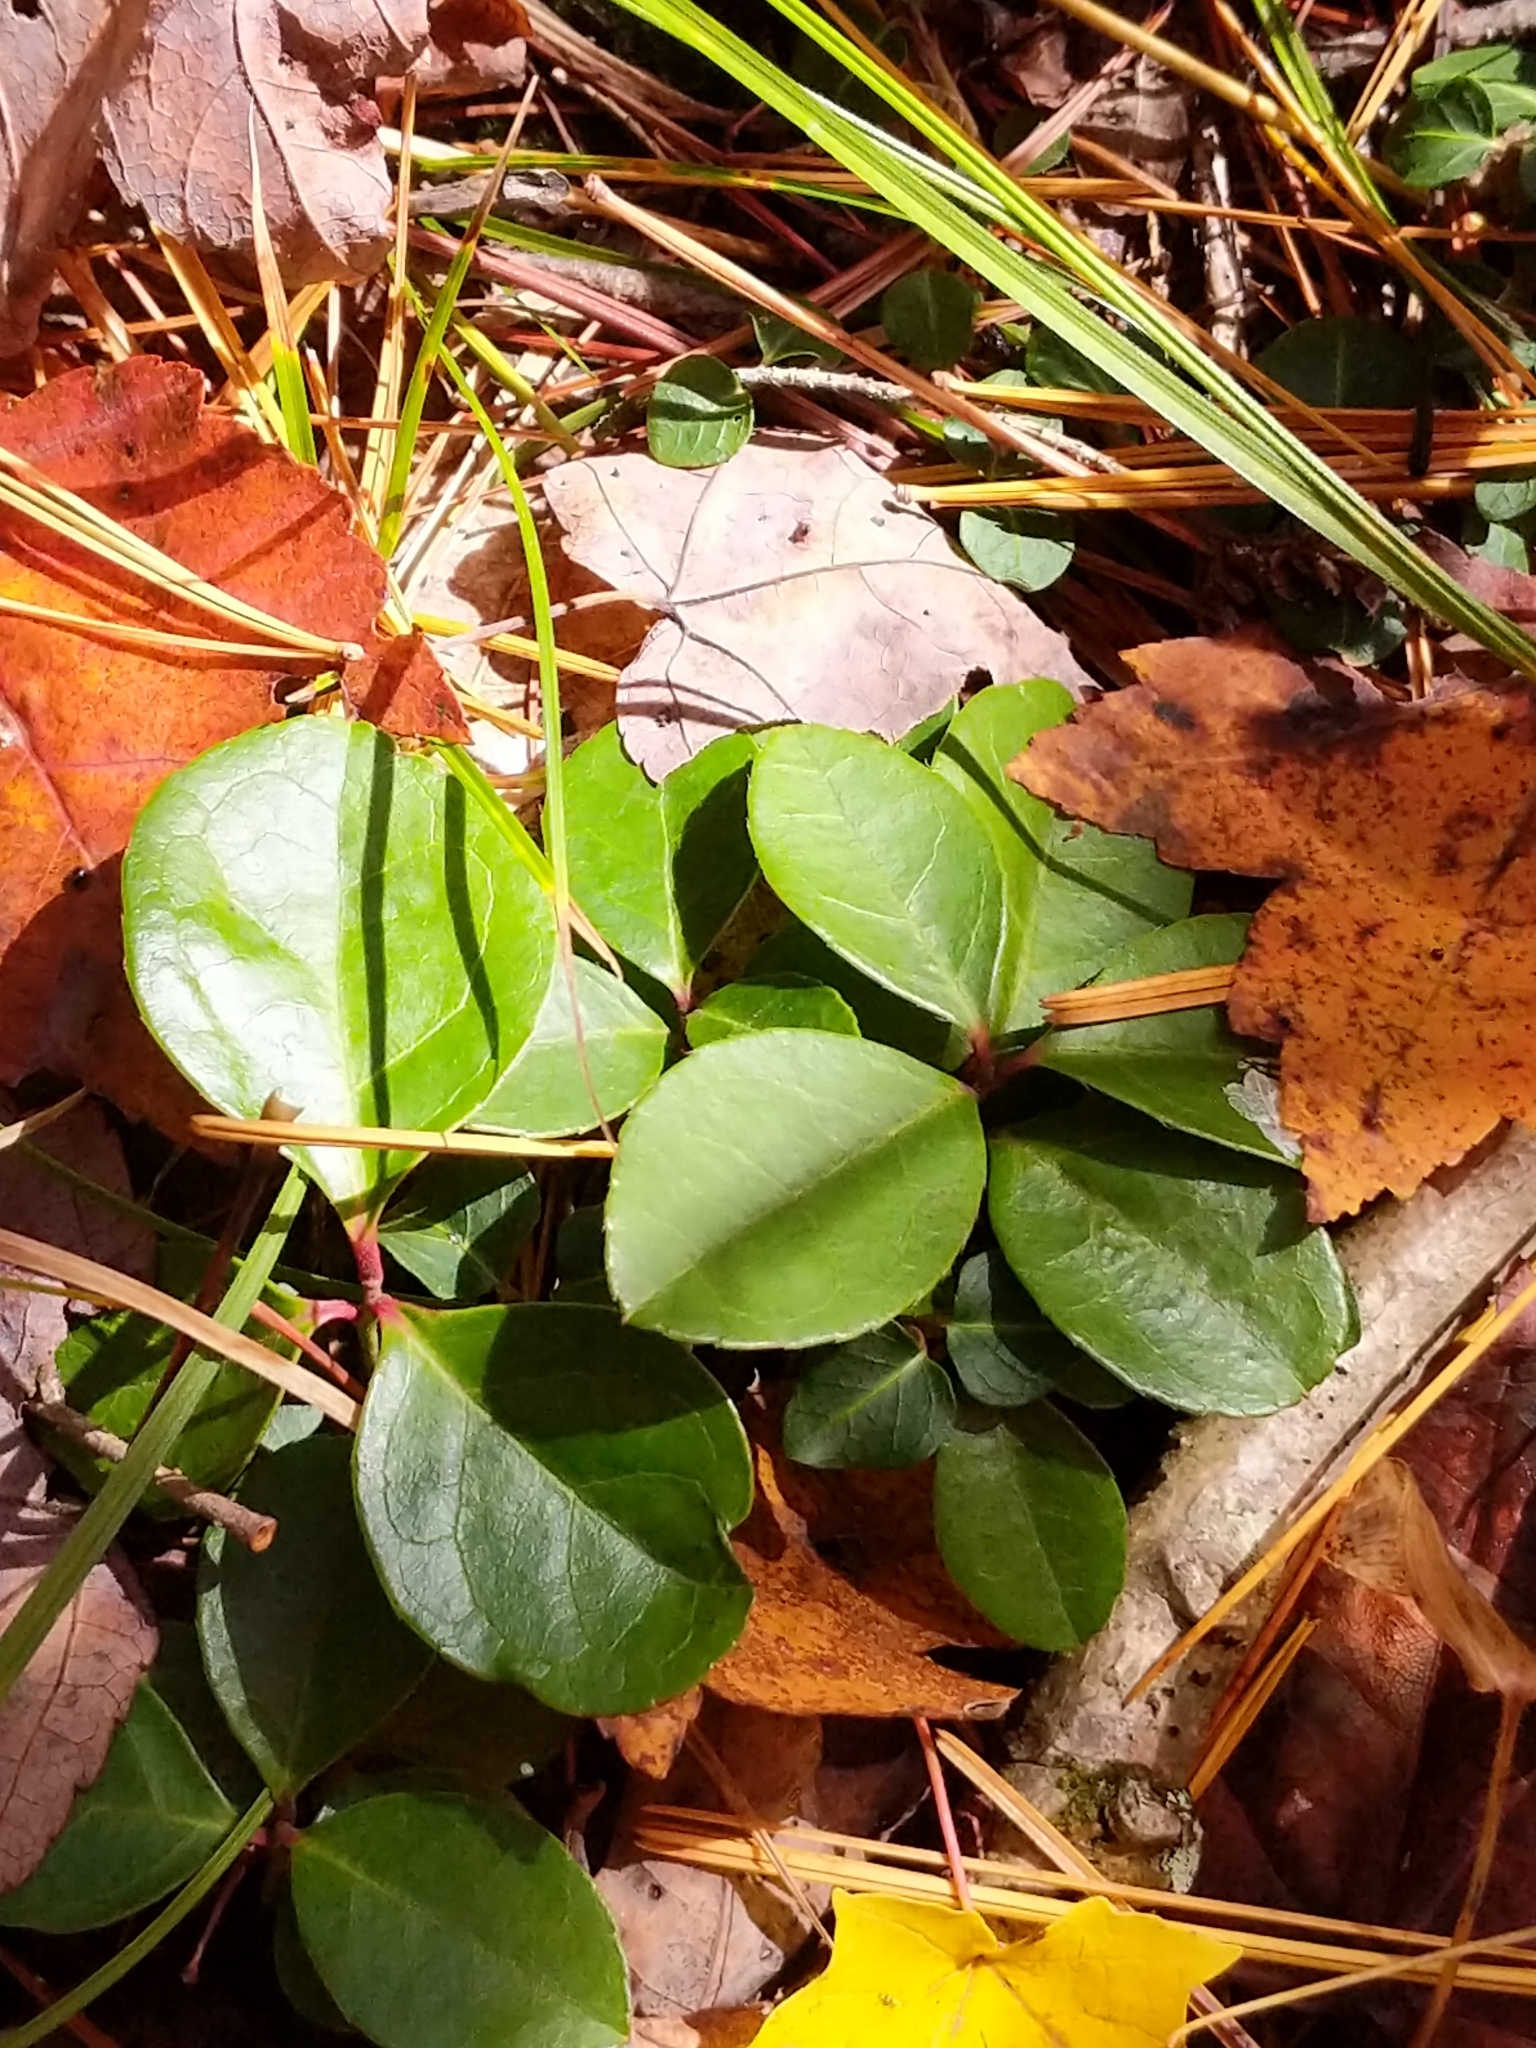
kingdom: Plantae
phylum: Tracheophyta
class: Magnoliopsida
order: Ericales
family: Ericaceae
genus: Gaultheria
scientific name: Gaultheria procumbens
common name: Checkerberry
